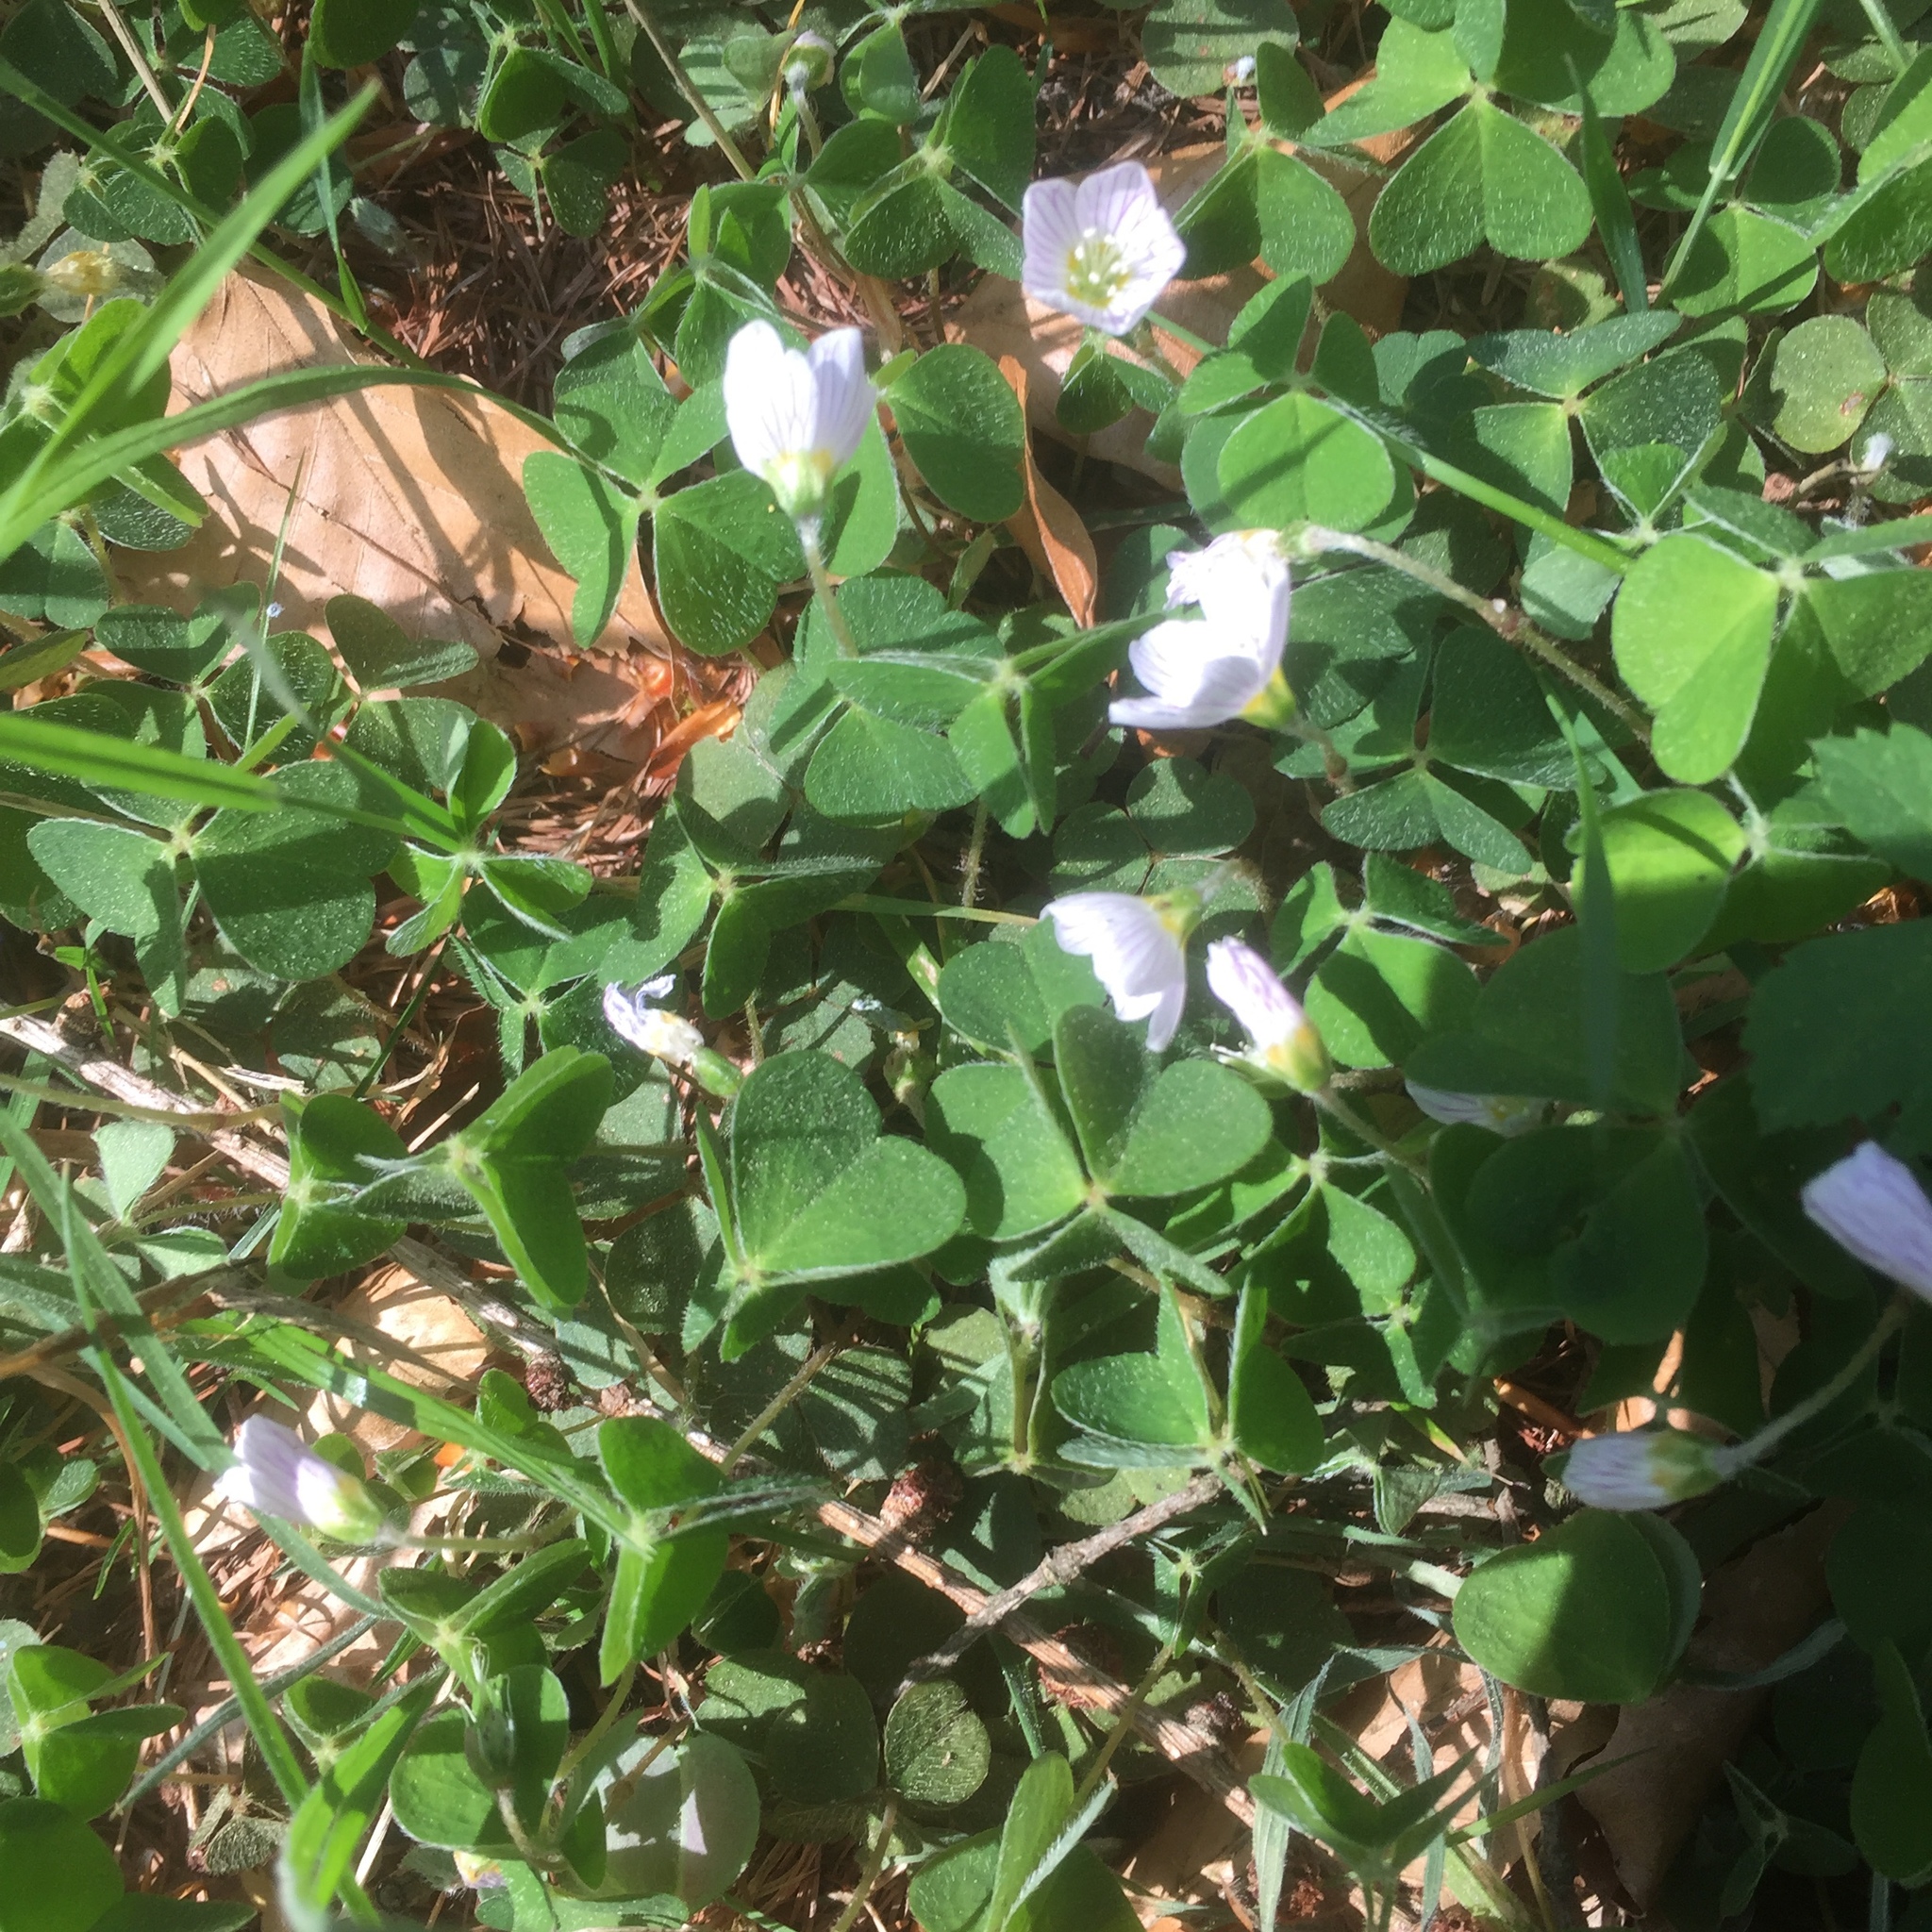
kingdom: Plantae
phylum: Tracheophyta
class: Magnoliopsida
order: Oxalidales
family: Oxalidaceae
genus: Oxalis
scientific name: Oxalis acetosella
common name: Wood-sorrel
